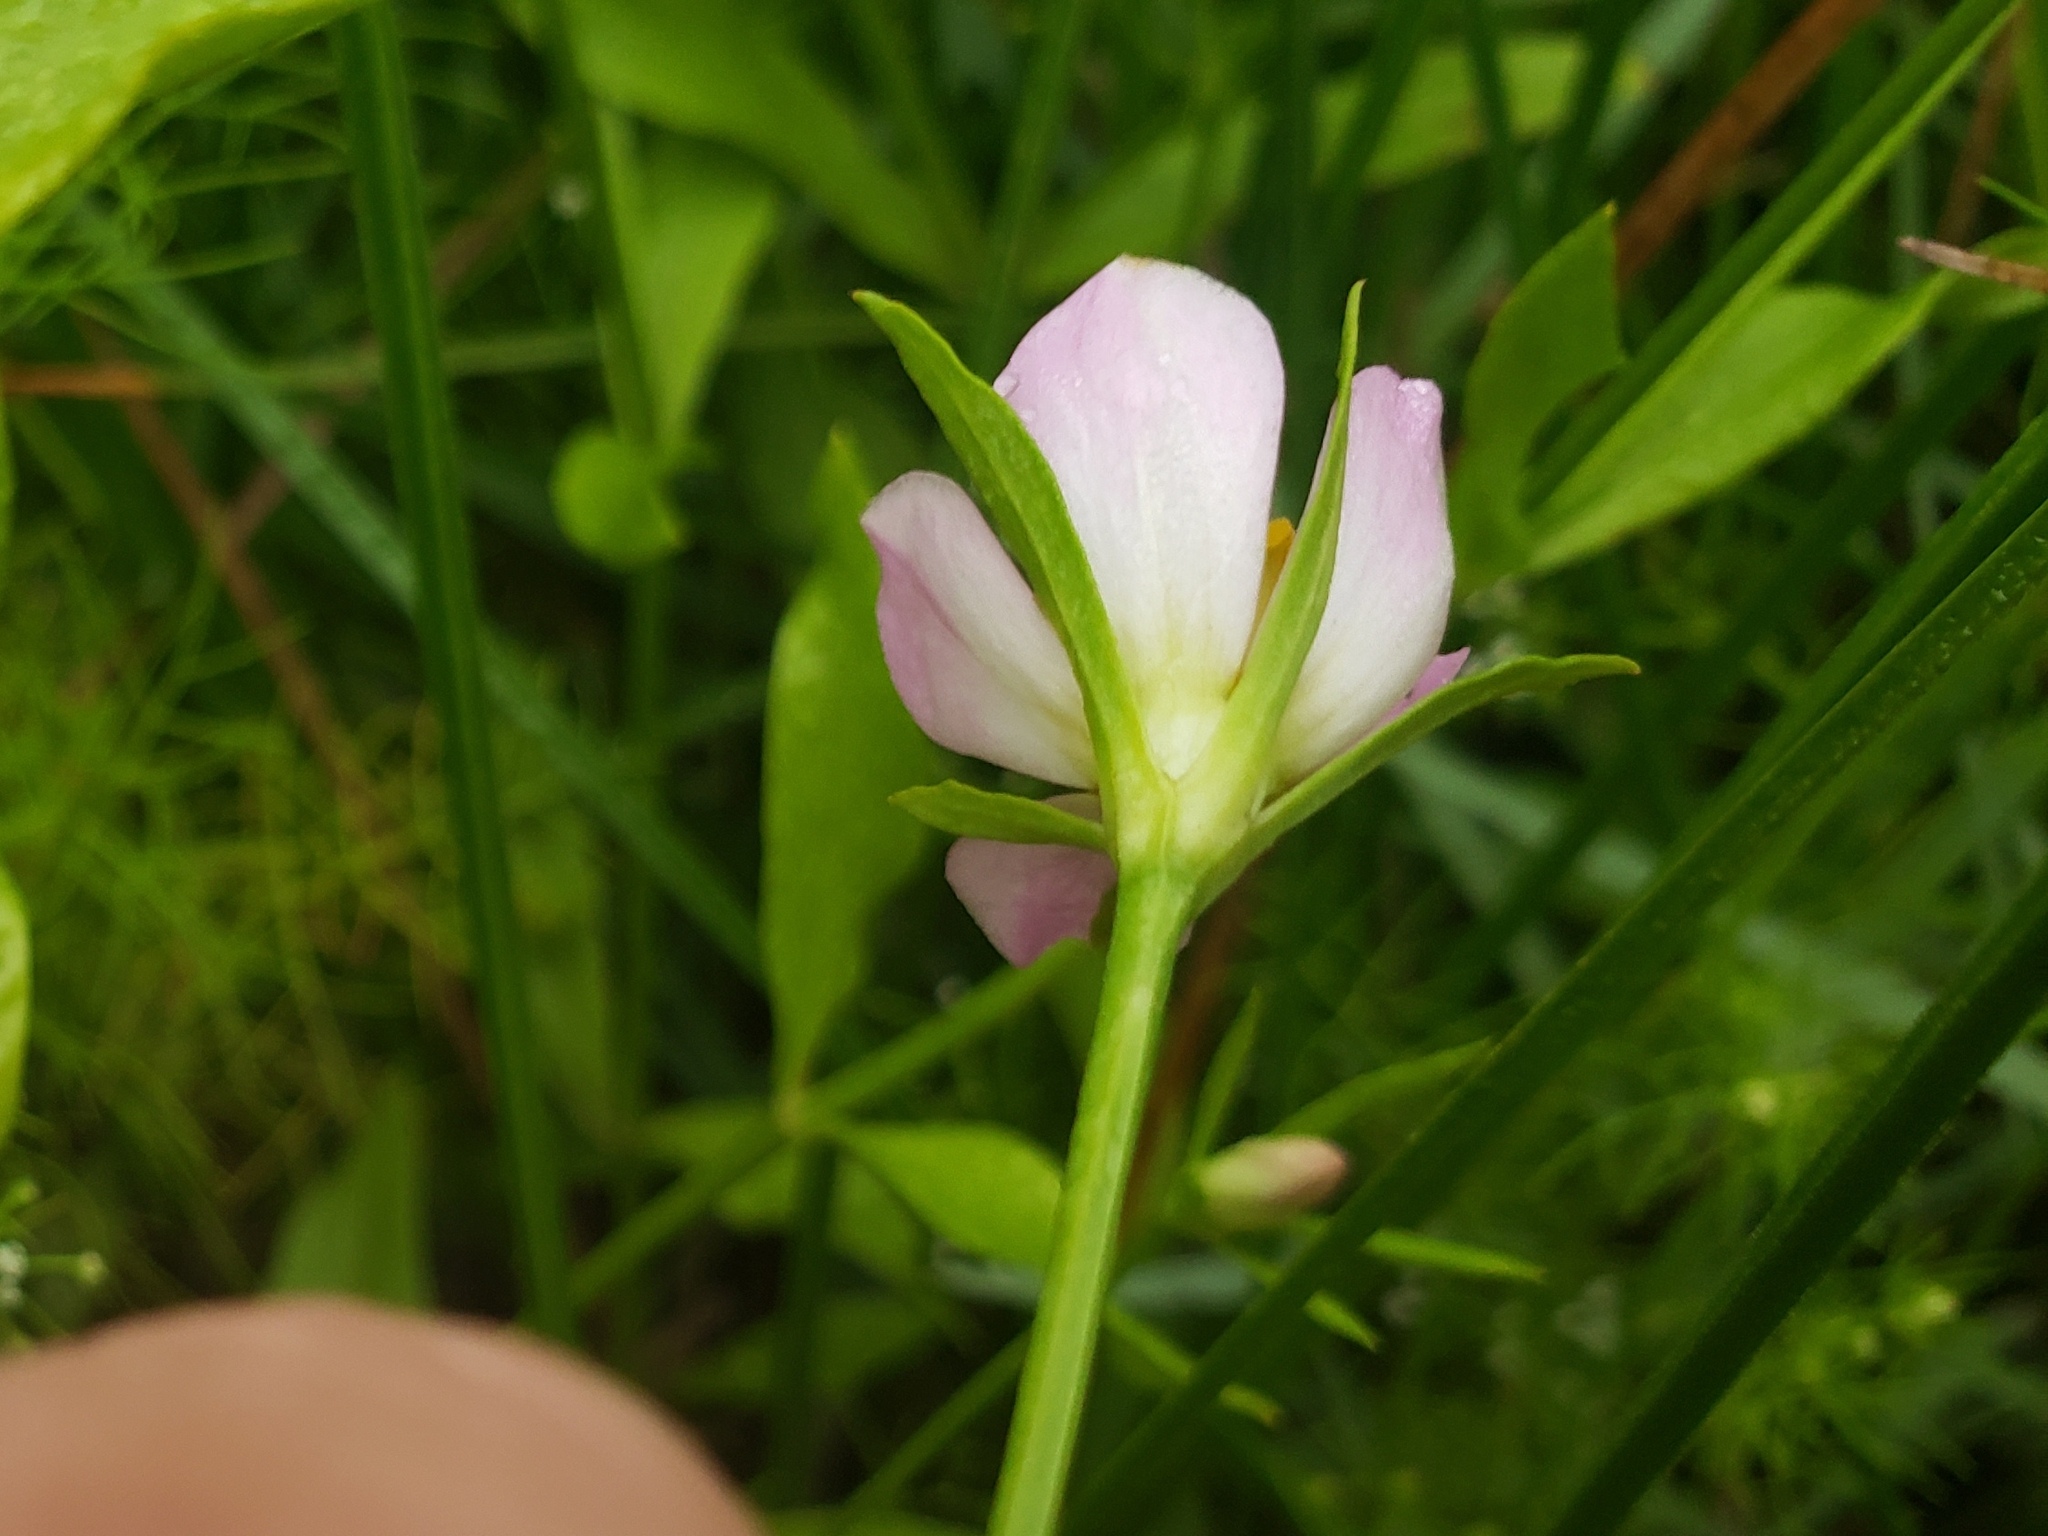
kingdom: Plantae
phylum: Tracheophyta
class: Magnoliopsida
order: Gentianales
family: Gentianaceae
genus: Sabatia
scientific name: Sabatia calycina
